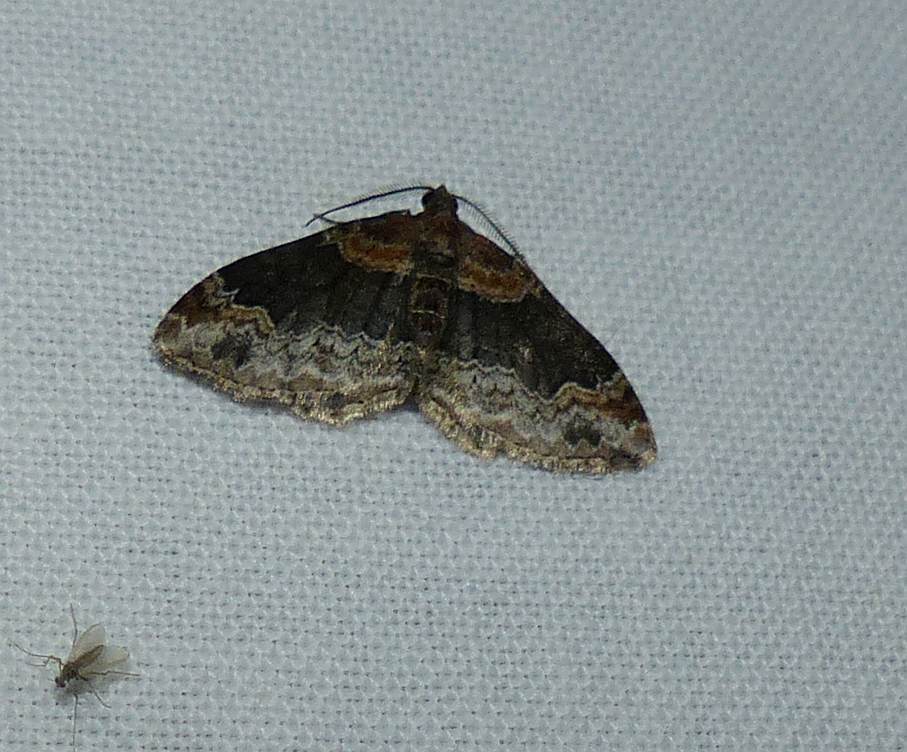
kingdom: Animalia
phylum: Arthropoda
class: Insecta
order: Lepidoptera
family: Geometridae
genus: Xanthorhoe
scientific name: Xanthorhoe ferrugata
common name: Dark-barred twin-spot carpet
